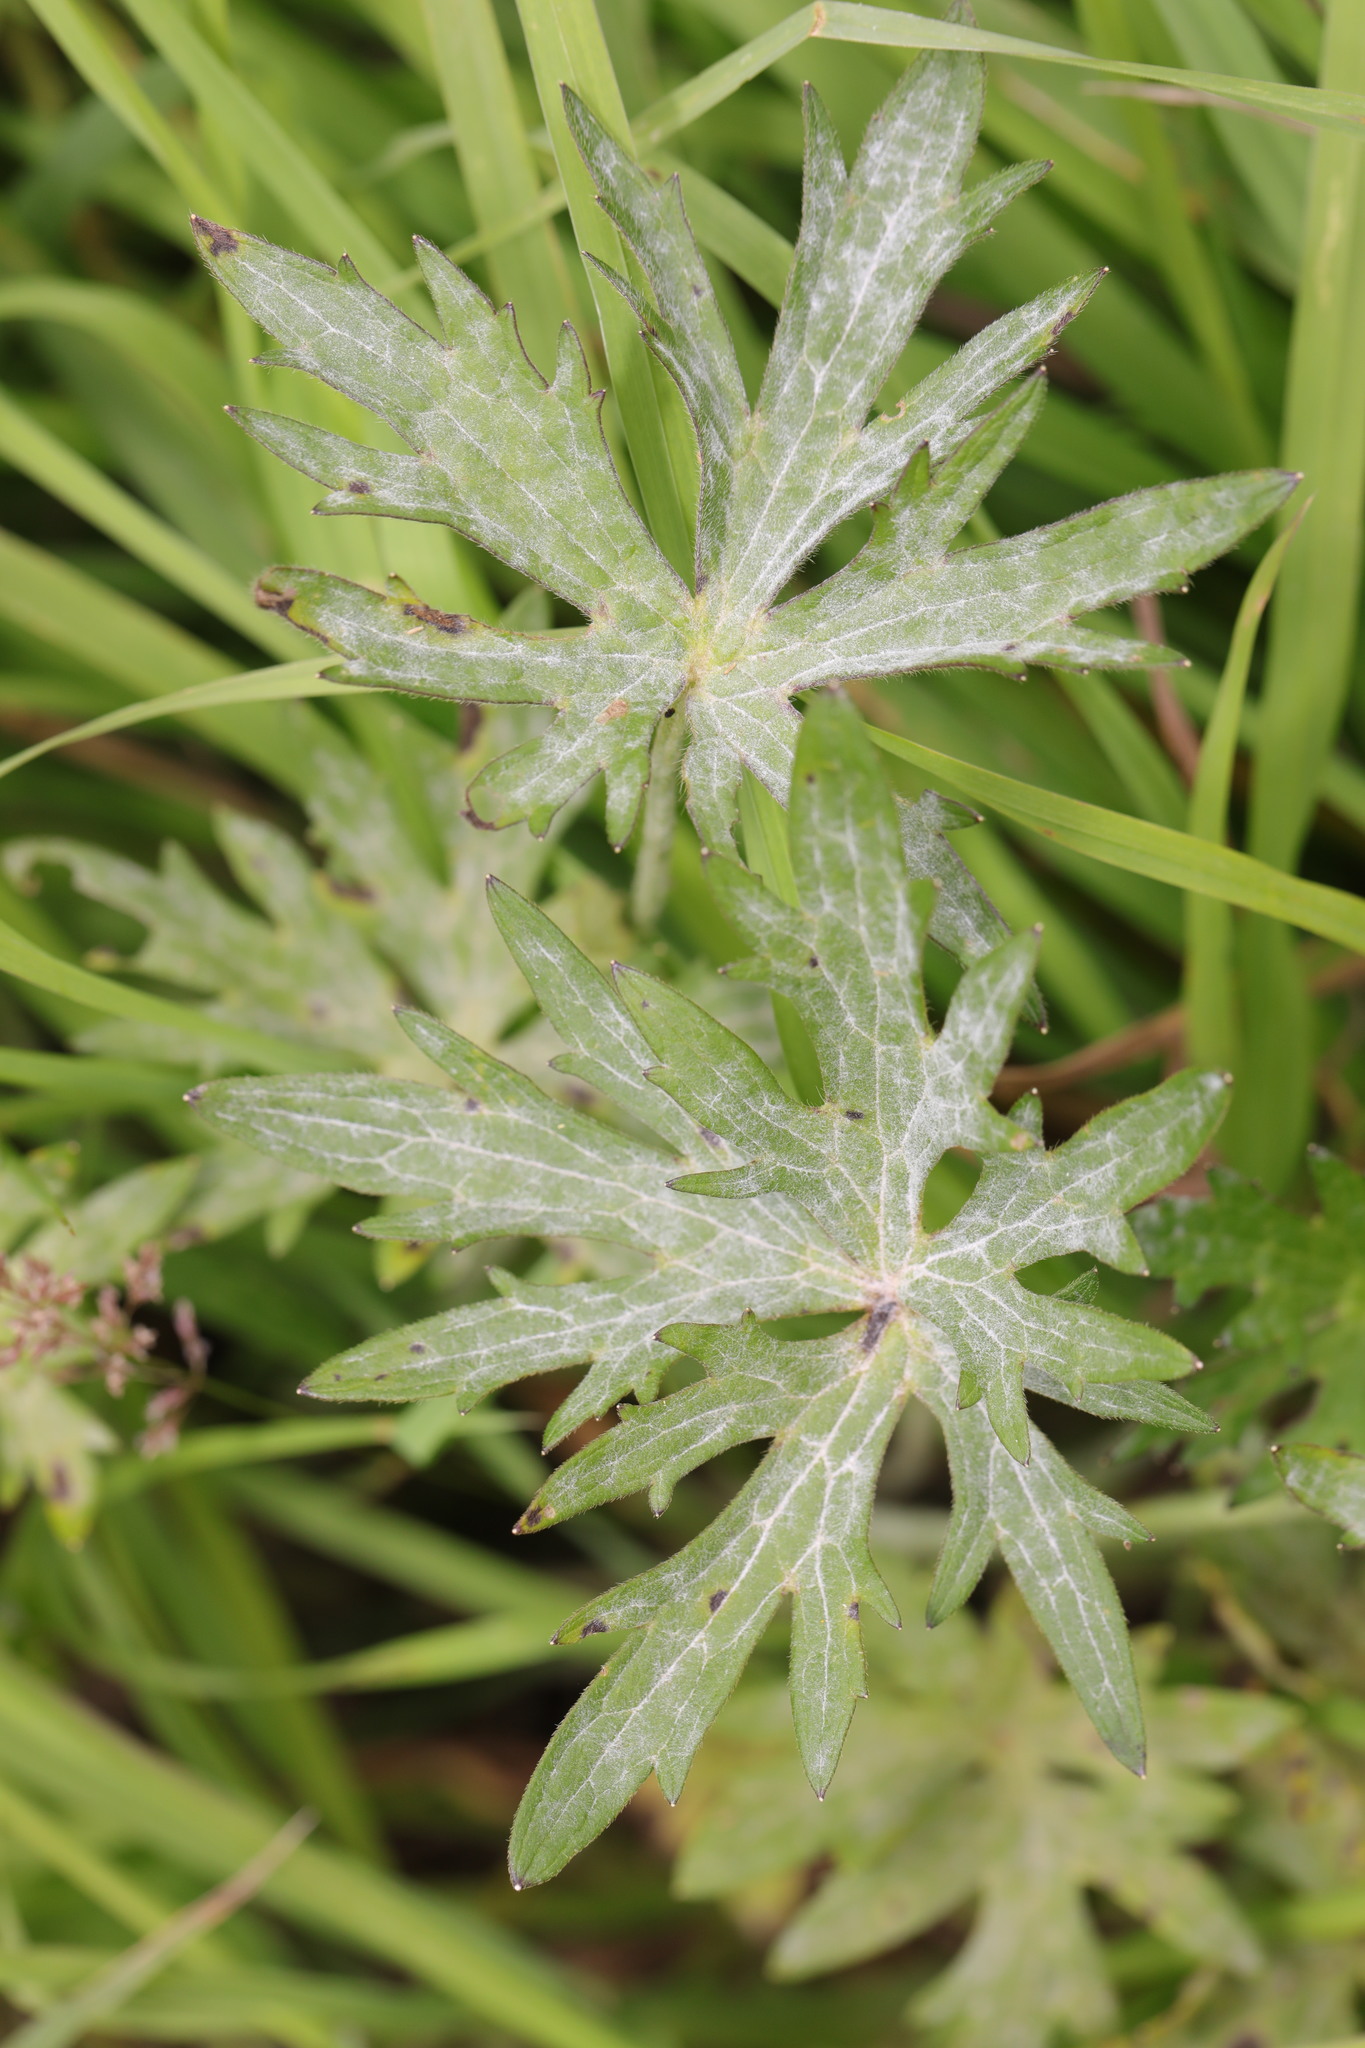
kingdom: Fungi
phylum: Ascomycota
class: Leotiomycetes
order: Helotiales
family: Erysiphaceae
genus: Erysiphe
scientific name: Erysiphe aquilegiae
